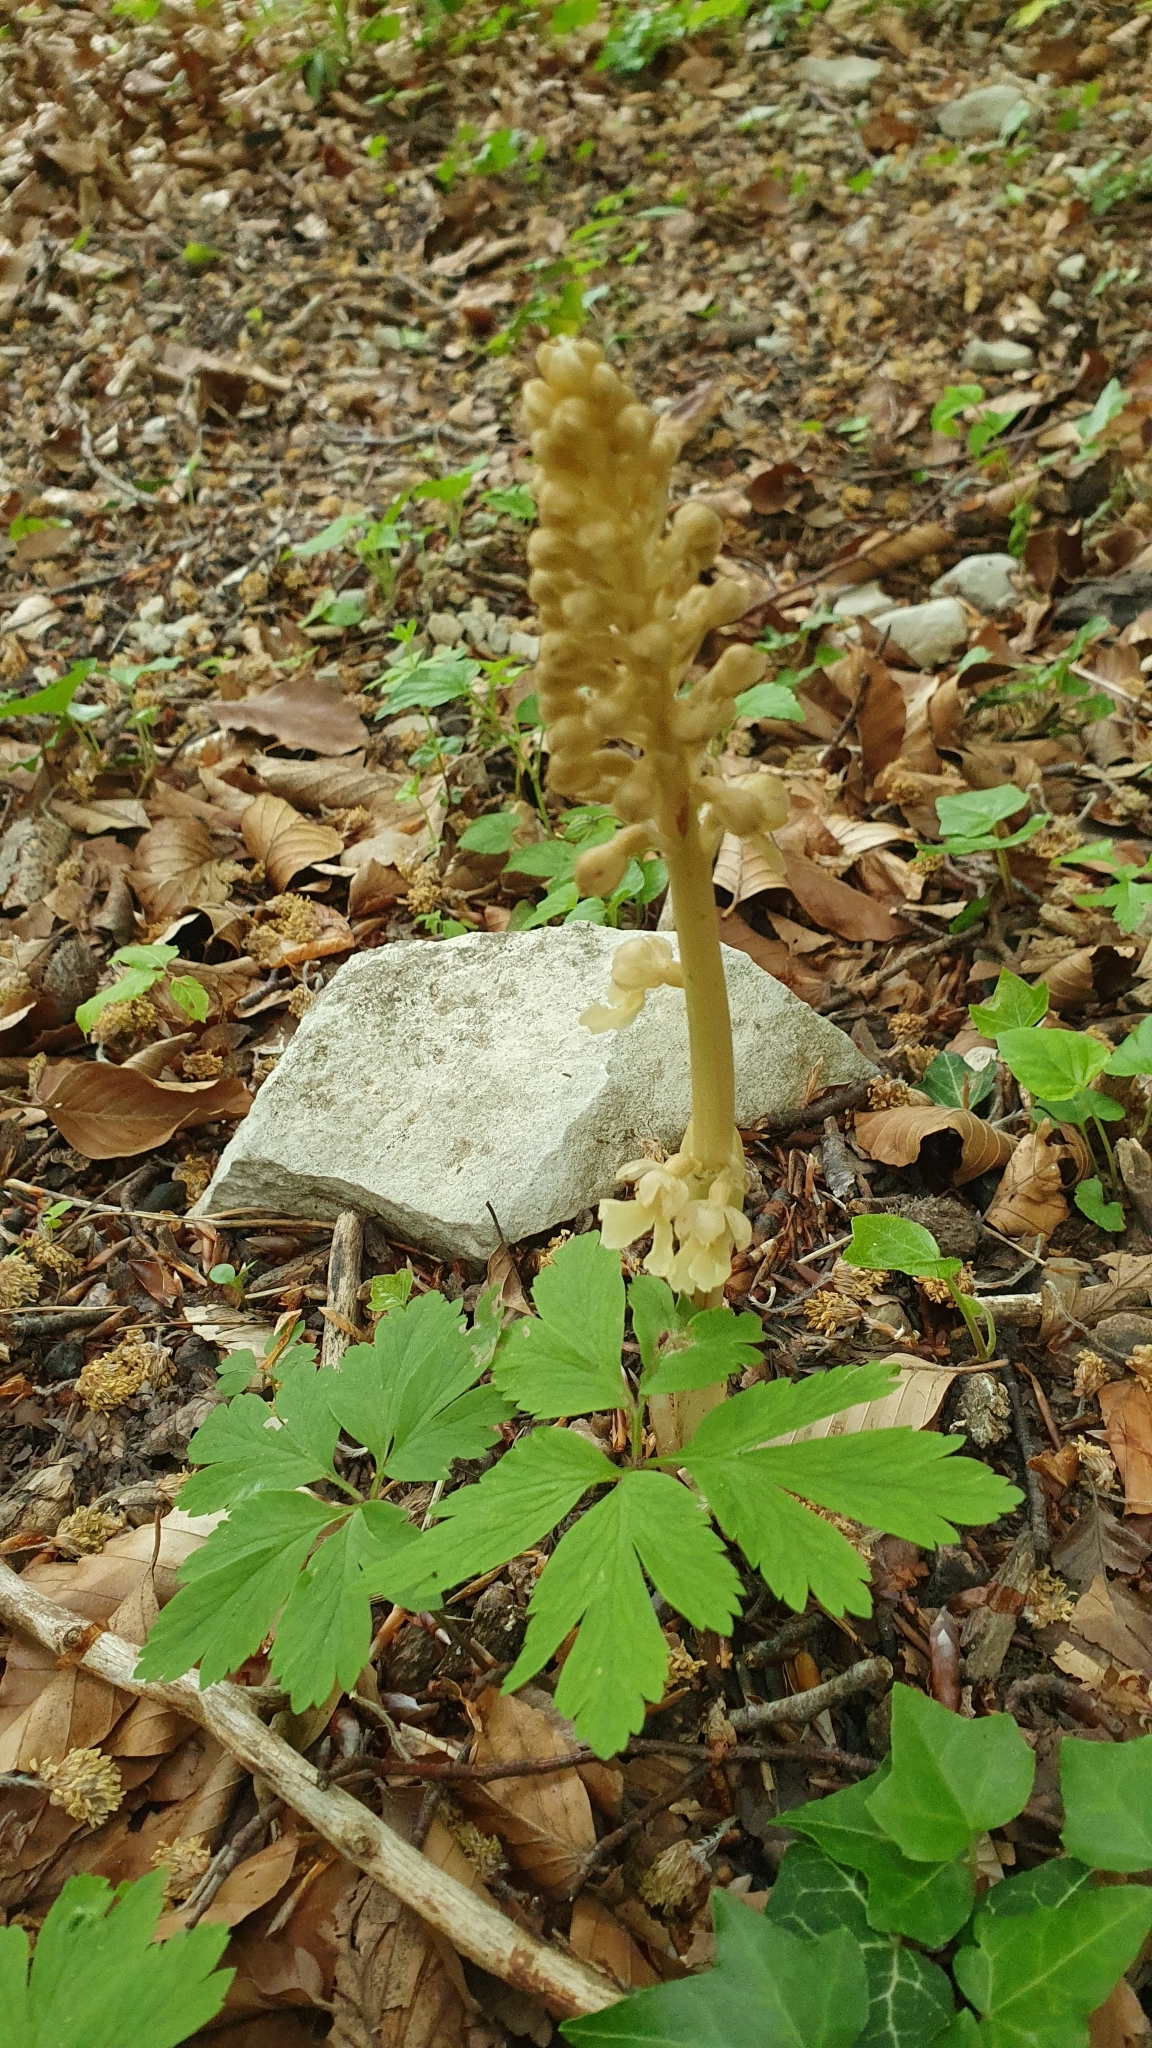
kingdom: Plantae
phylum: Tracheophyta
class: Liliopsida
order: Asparagales
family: Orchidaceae
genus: Neottia
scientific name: Neottia nidus-avis
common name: Bird's-nest orchid
